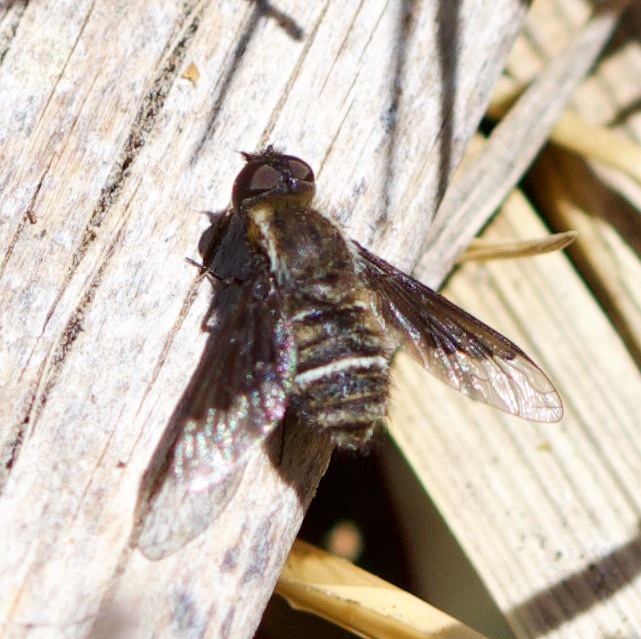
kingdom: Animalia
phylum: Arthropoda
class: Insecta
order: Diptera
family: Bombyliidae
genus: Hemipenthes
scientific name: Hemipenthes differens
